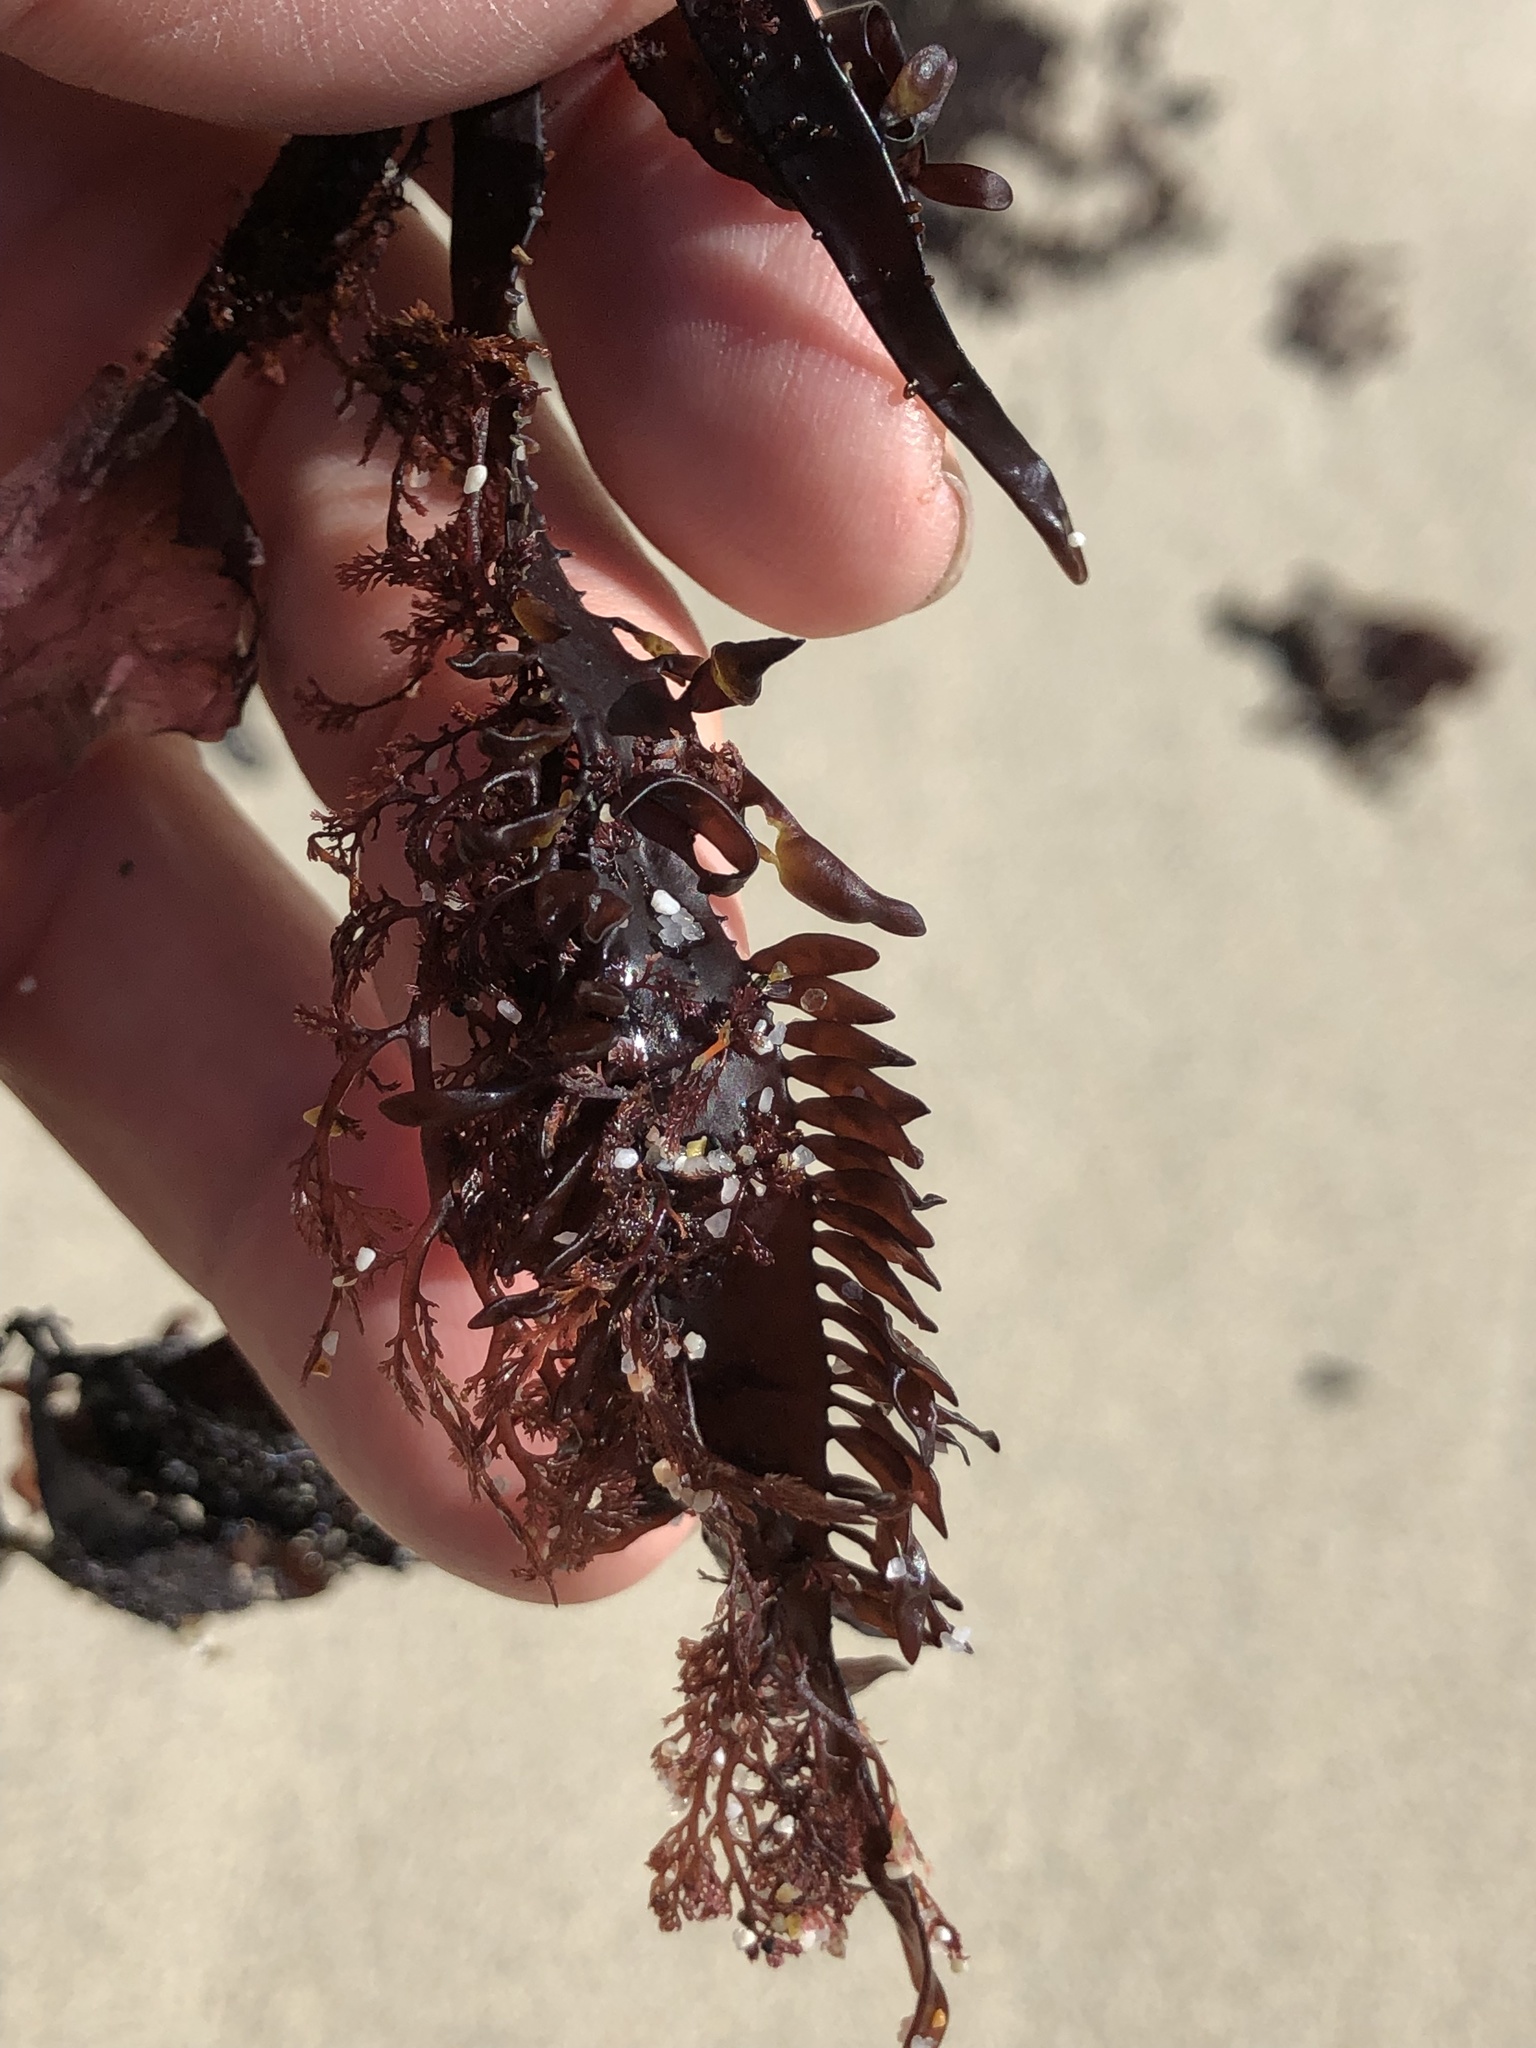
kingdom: Plantae
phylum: Rhodophyta
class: Florideophyceae
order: Halymeniales
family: Halymeniaceae
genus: Grateloupia
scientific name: Grateloupia Prionitis lanceolata
